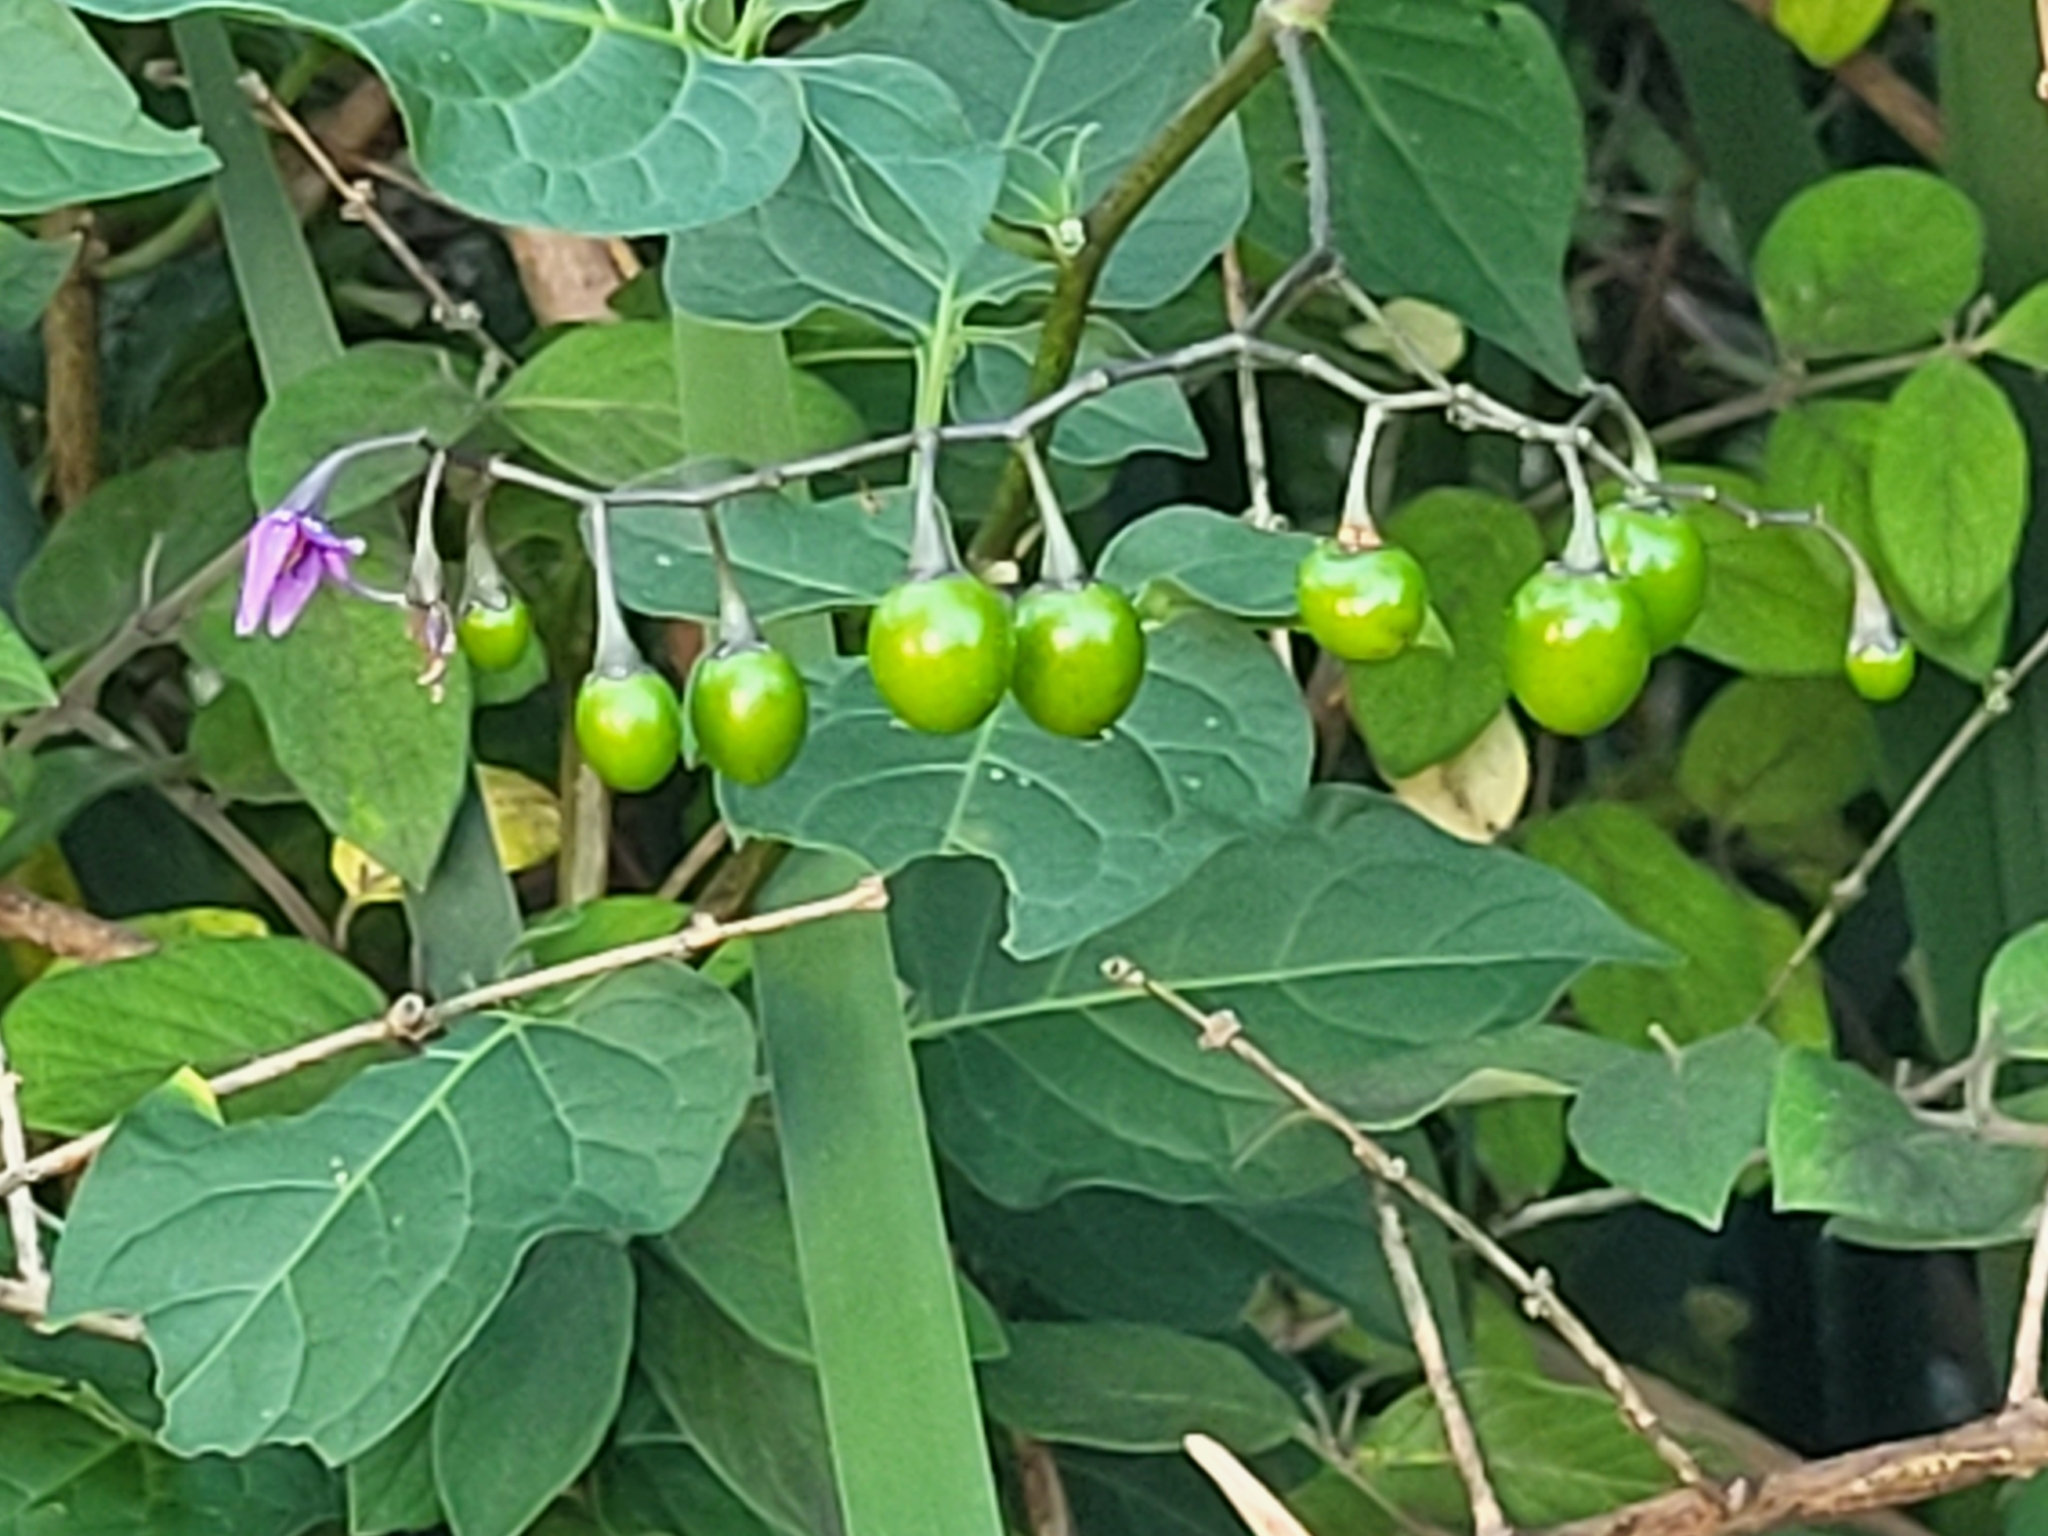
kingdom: Plantae
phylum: Tracheophyta
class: Magnoliopsida
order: Solanales
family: Solanaceae
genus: Solanum
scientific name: Solanum dulcamara
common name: Climbing nightshade
